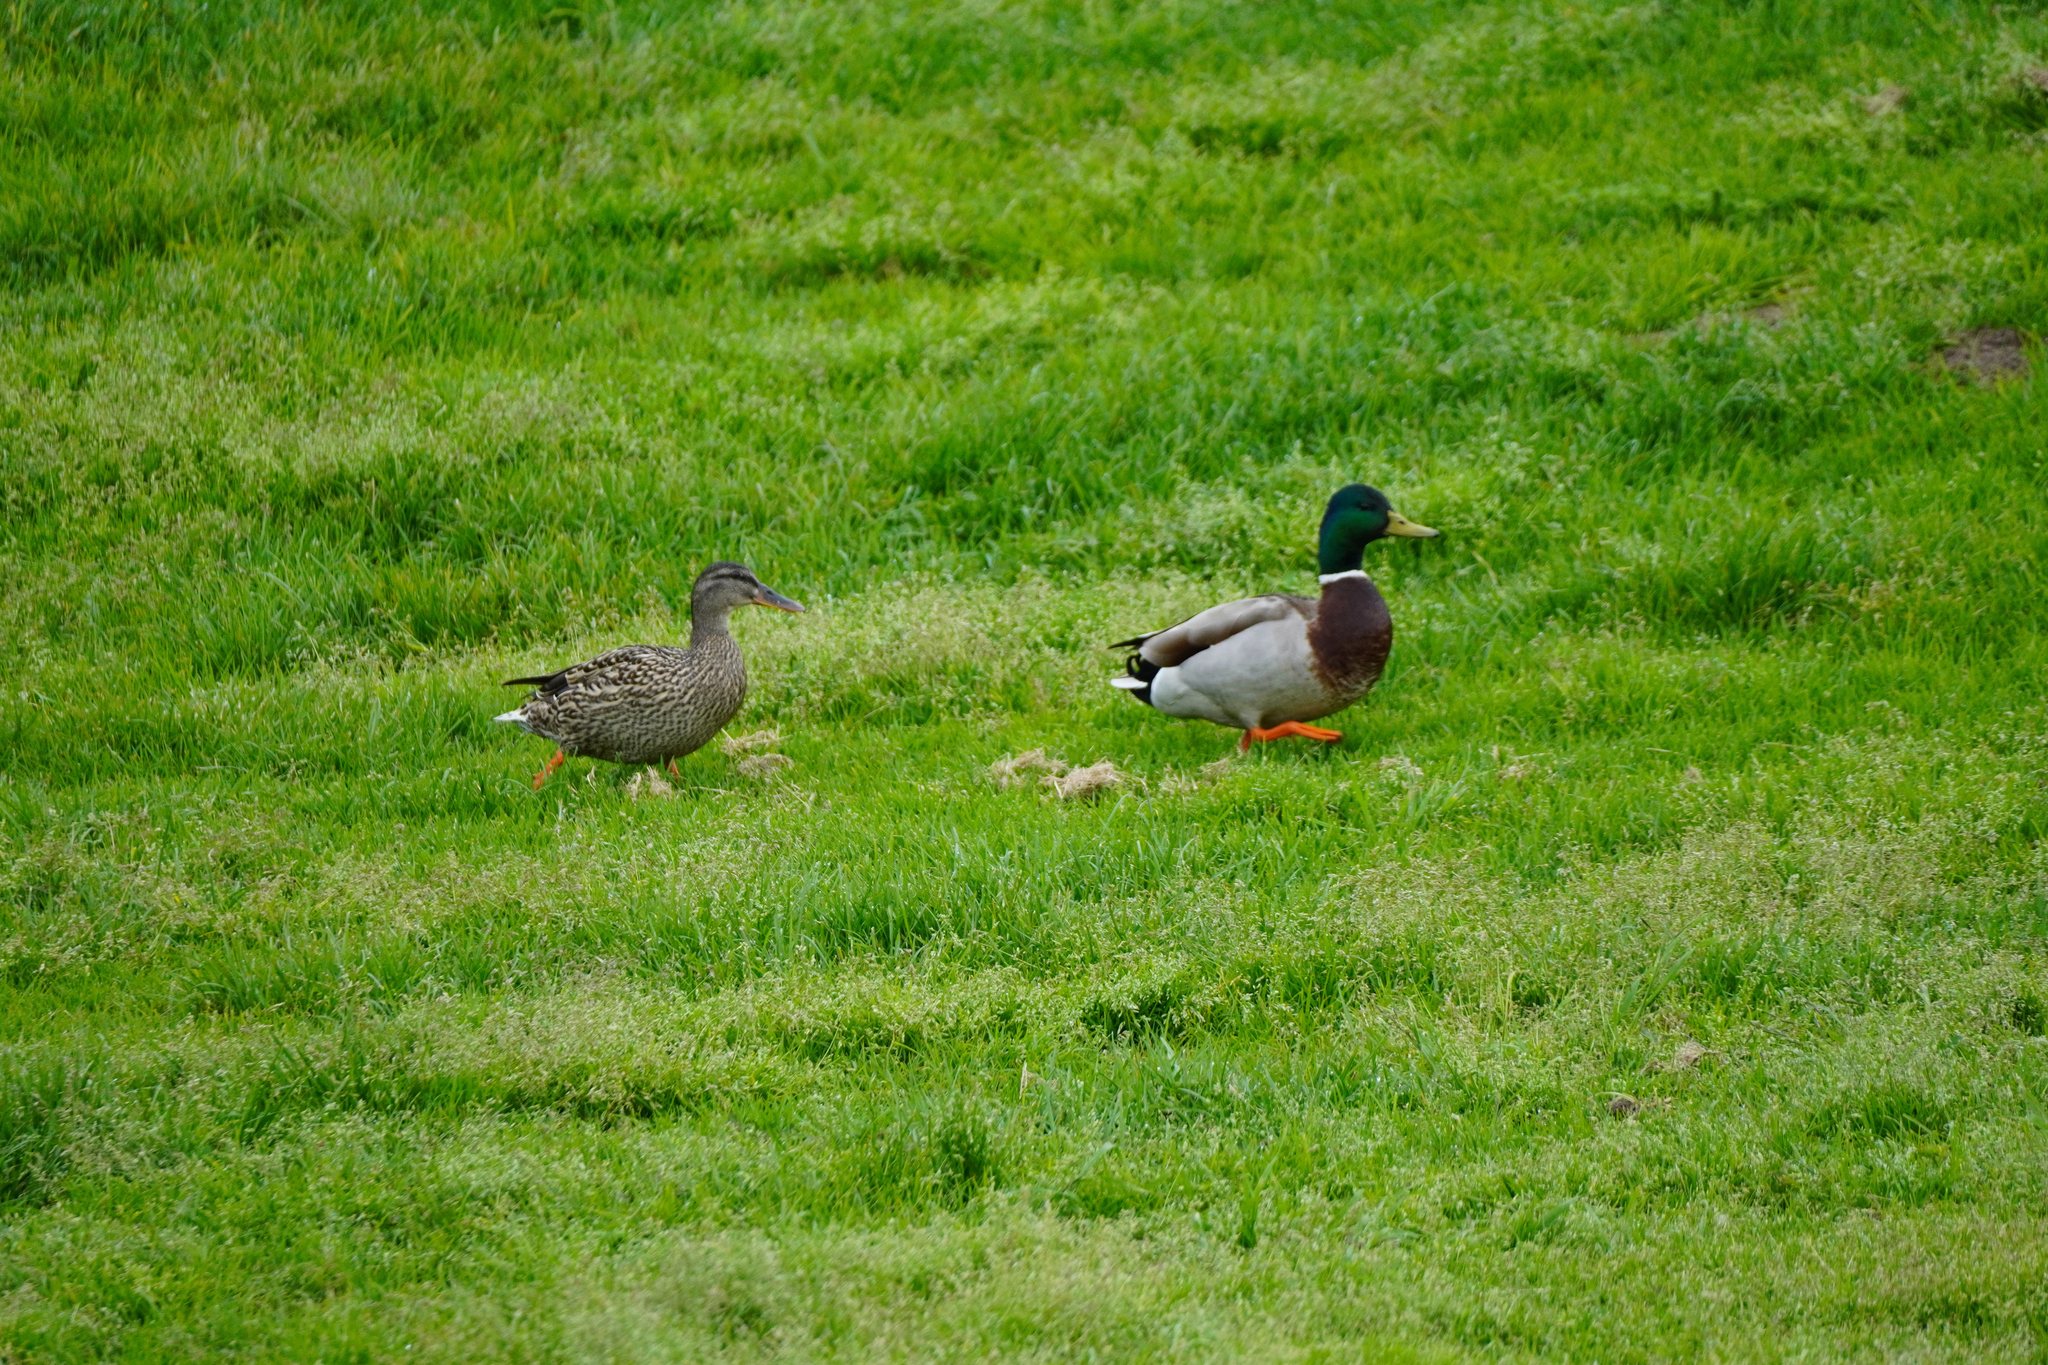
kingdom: Animalia
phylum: Chordata
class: Aves
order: Anseriformes
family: Anatidae
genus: Anas
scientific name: Anas platyrhynchos
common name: Mallard
